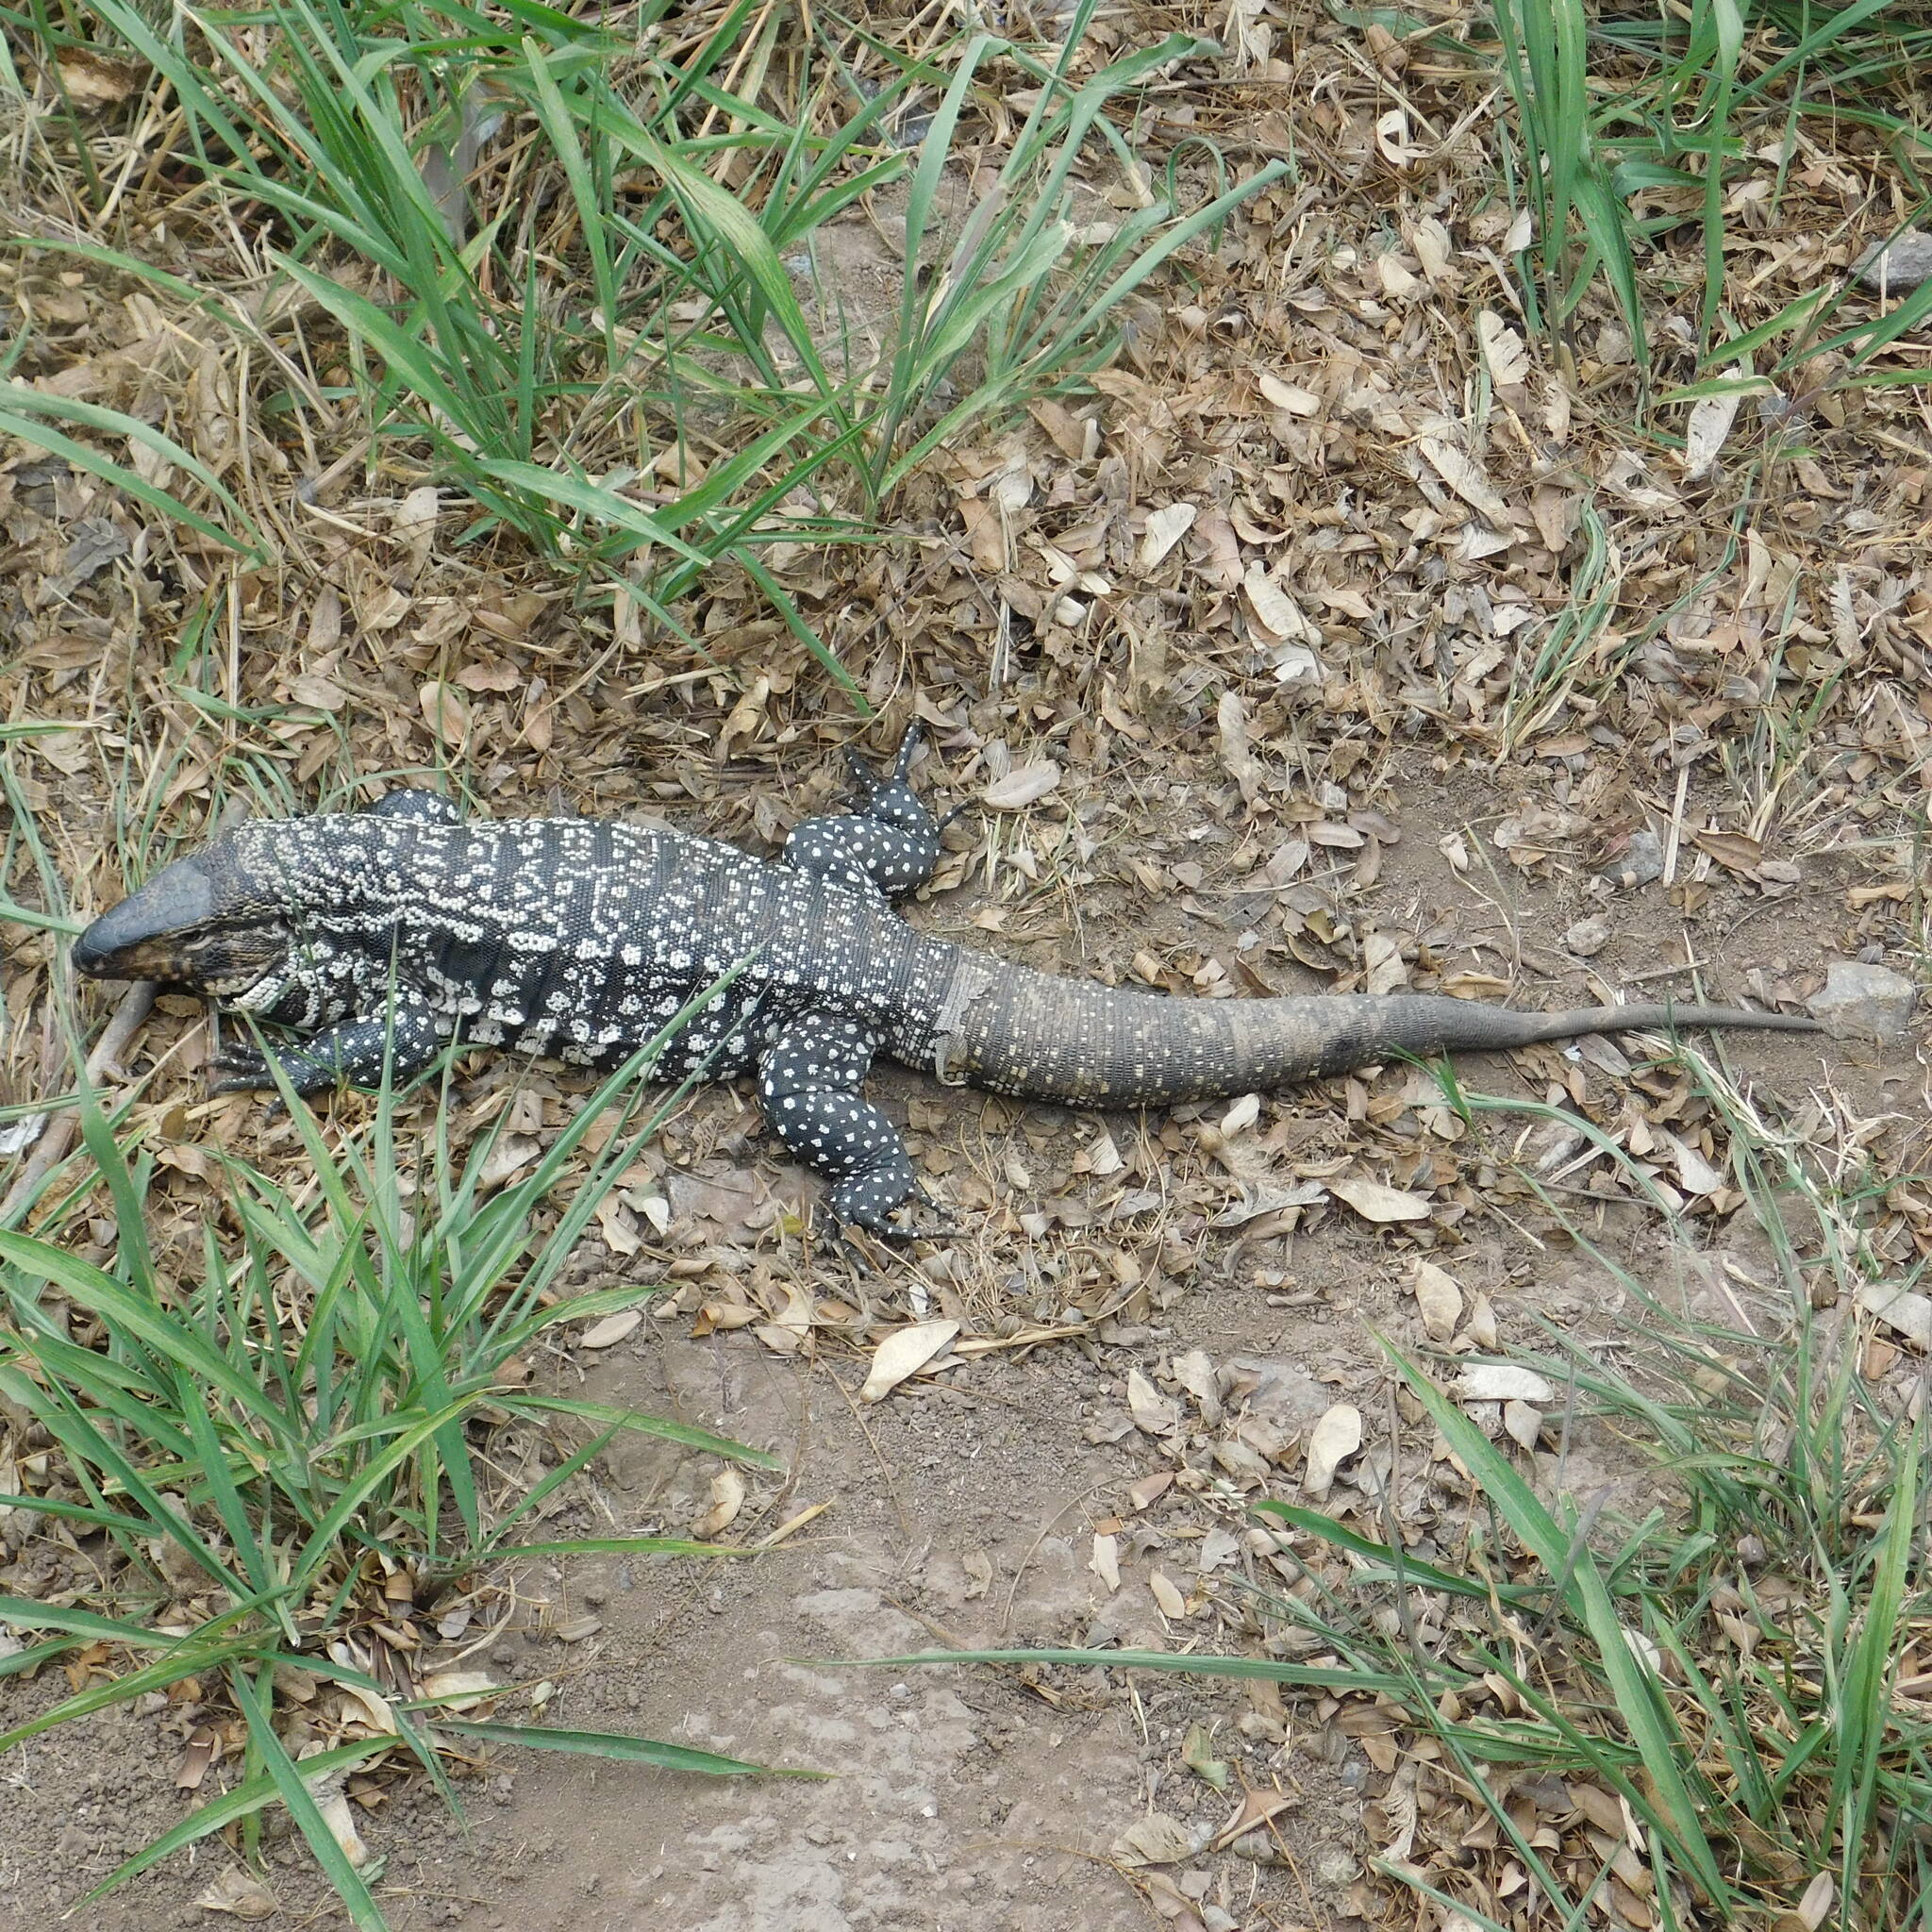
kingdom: Animalia
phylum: Chordata
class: Squamata
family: Teiidae
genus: Salvator
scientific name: Salvator merianae
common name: Argentine black and white tegu
